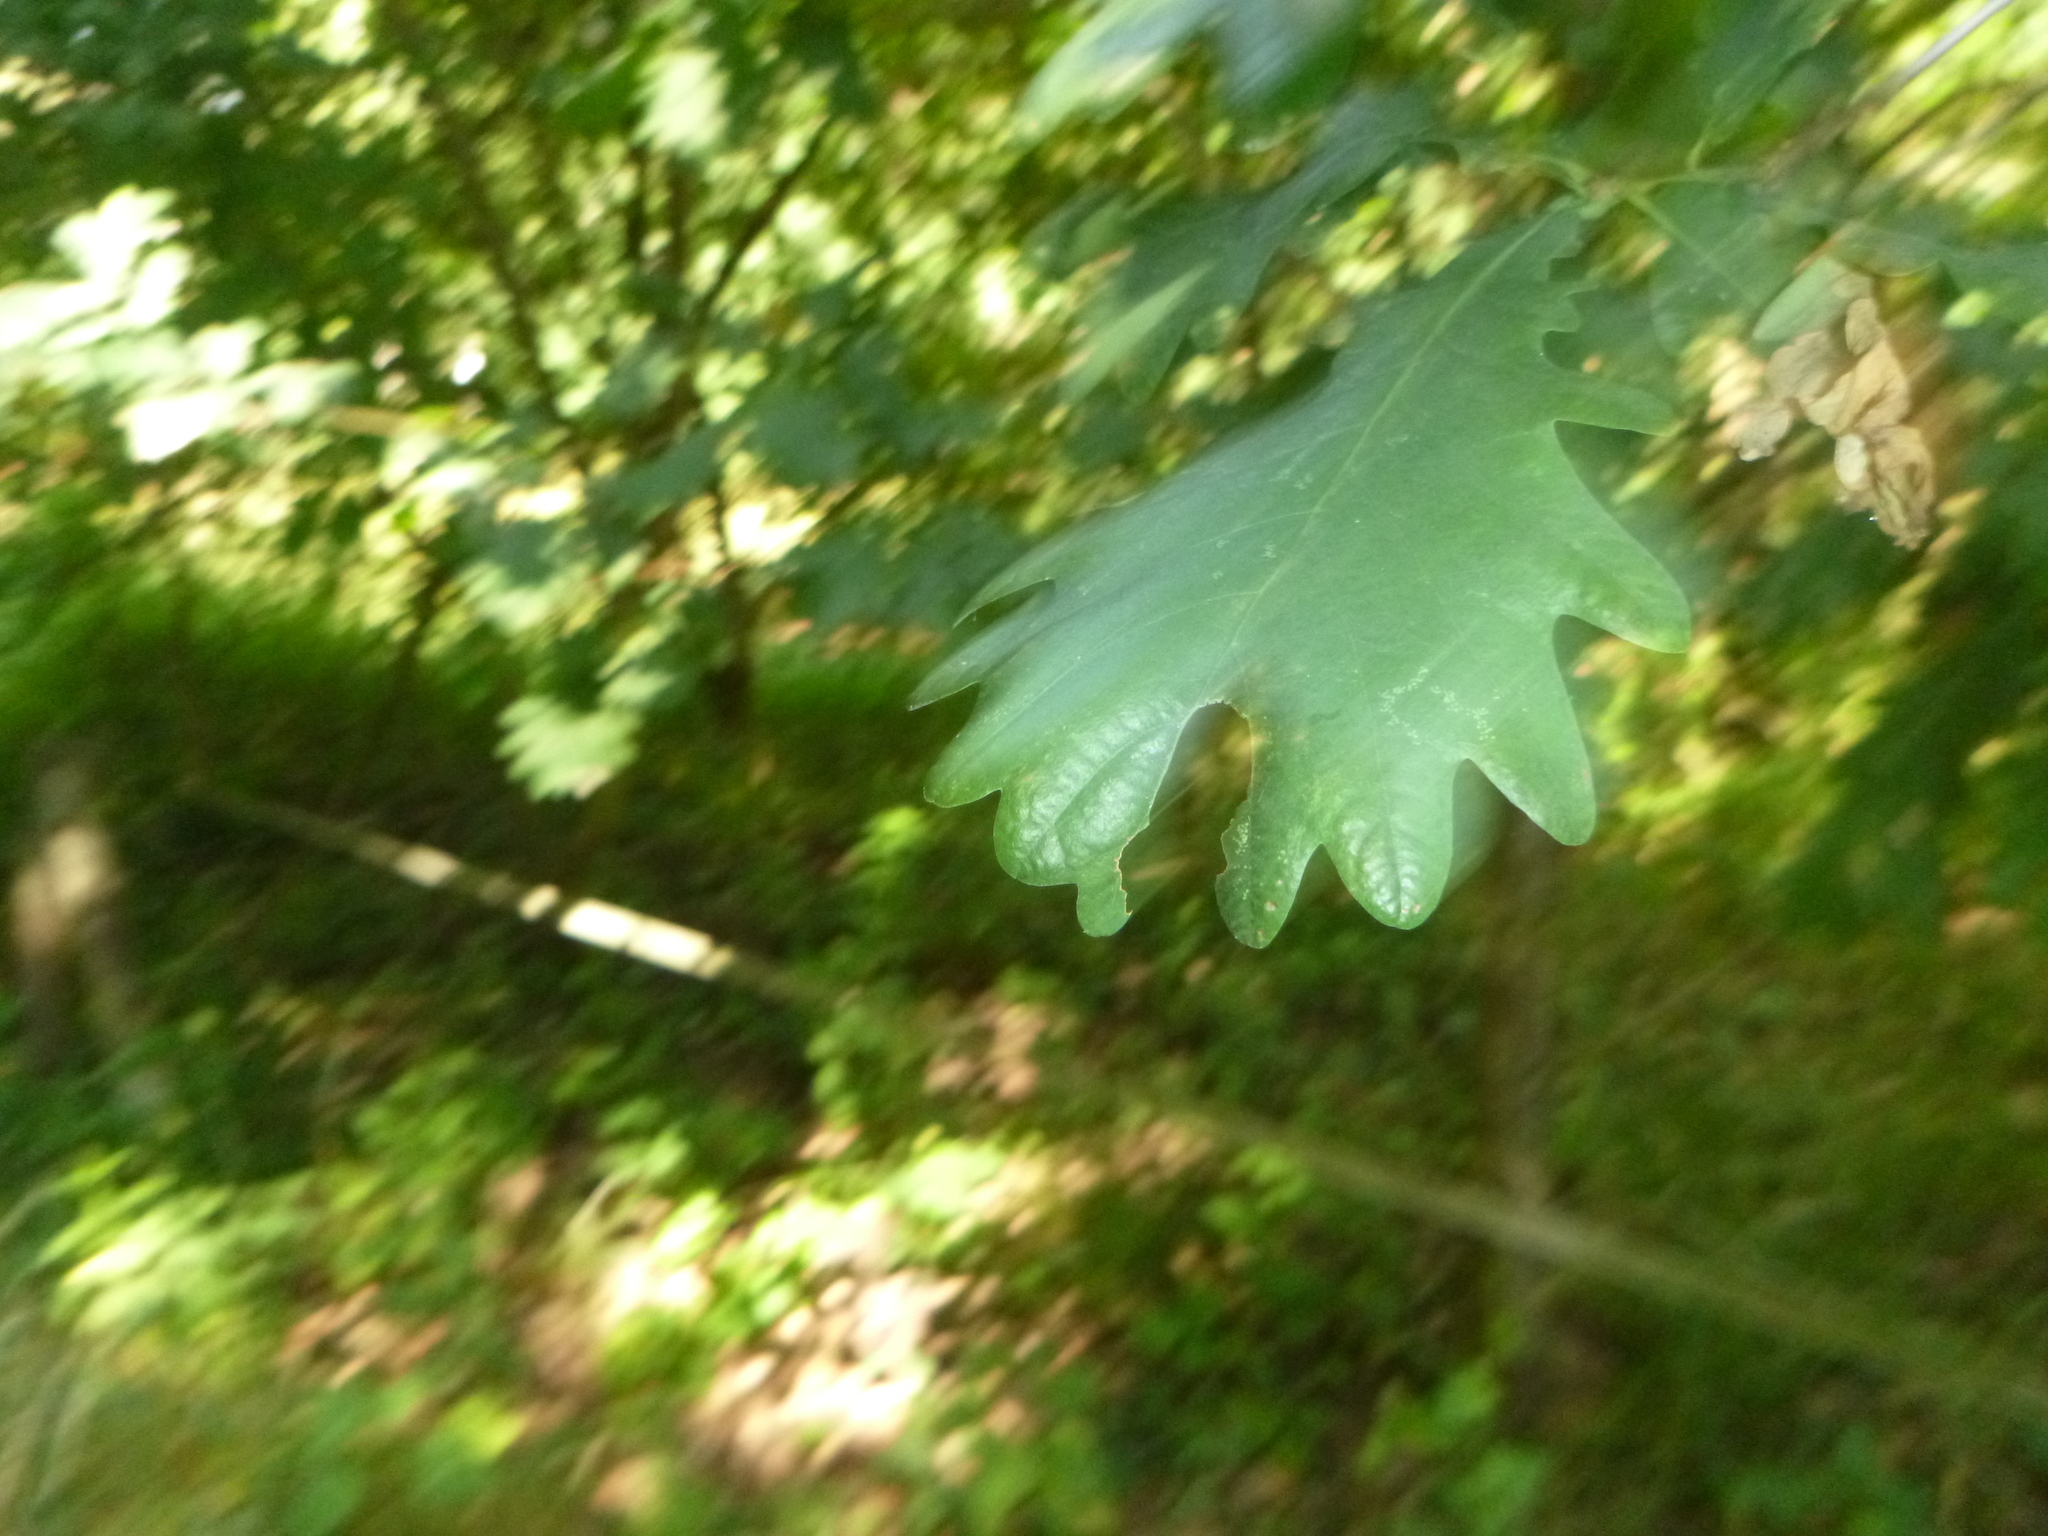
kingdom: Plantae
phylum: Tracheophyta
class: Magnoliopsida
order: Fagales
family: Fagaceae
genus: Quercus
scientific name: Quercus robur
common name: Pedunculate oak
